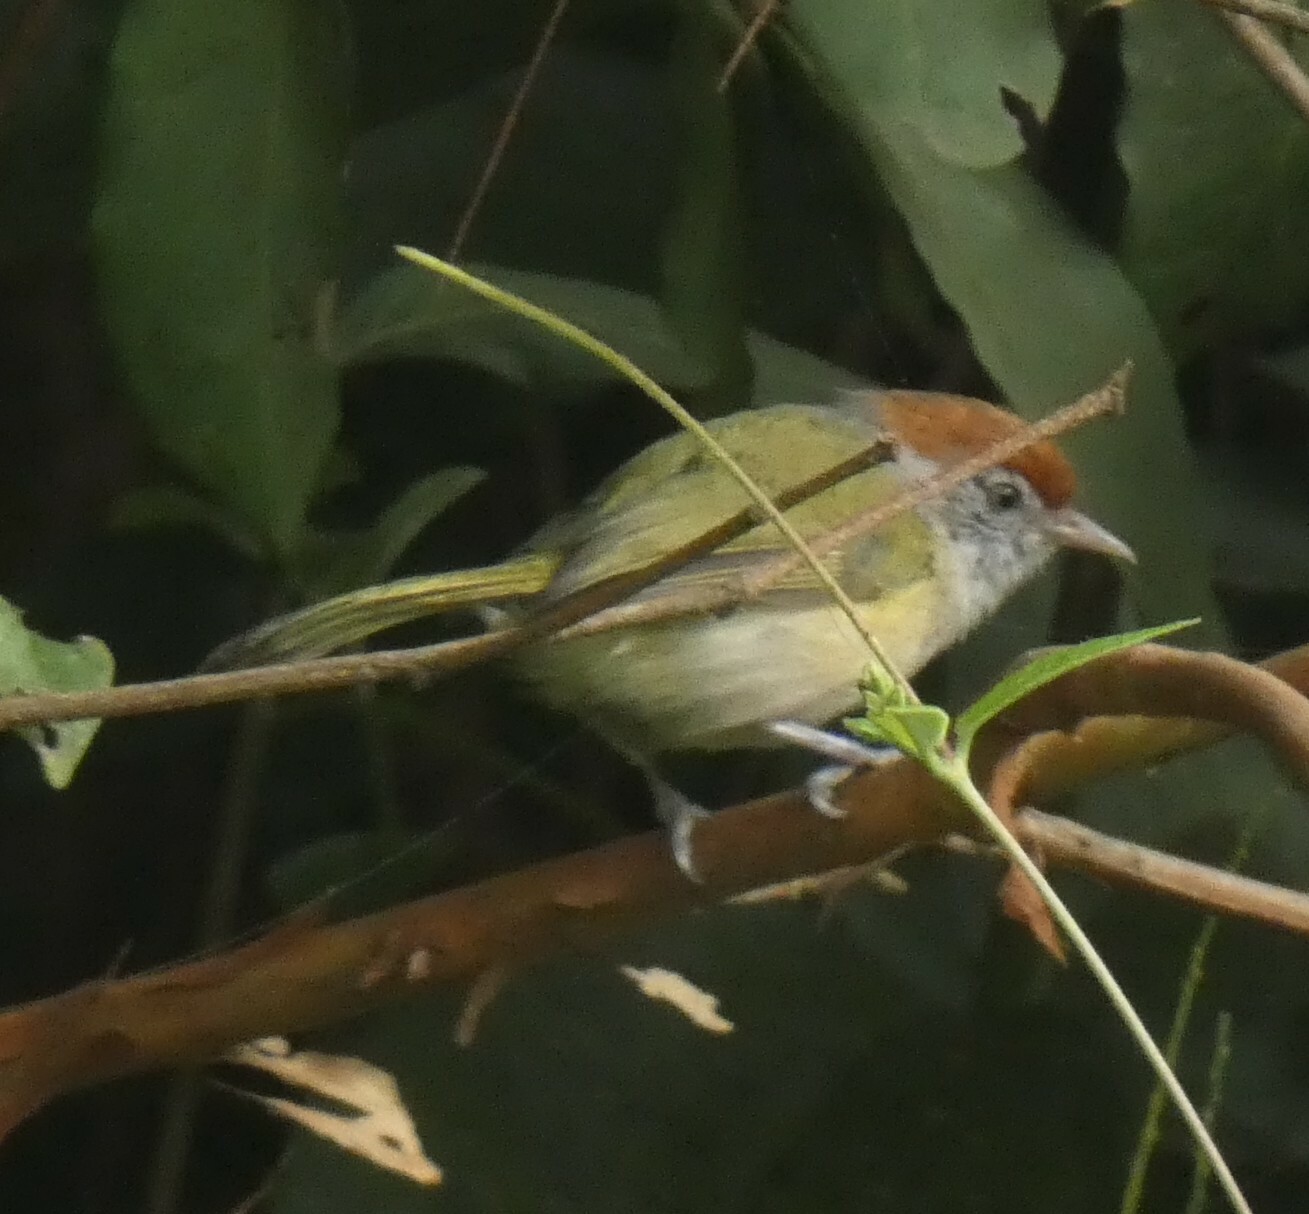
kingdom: Animalia
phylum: Chordata
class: Aves
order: Passeriformes
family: Vireonidae
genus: Hylophilus
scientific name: Hylophilus amaurocephalus
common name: Grey-eyed greenlet
